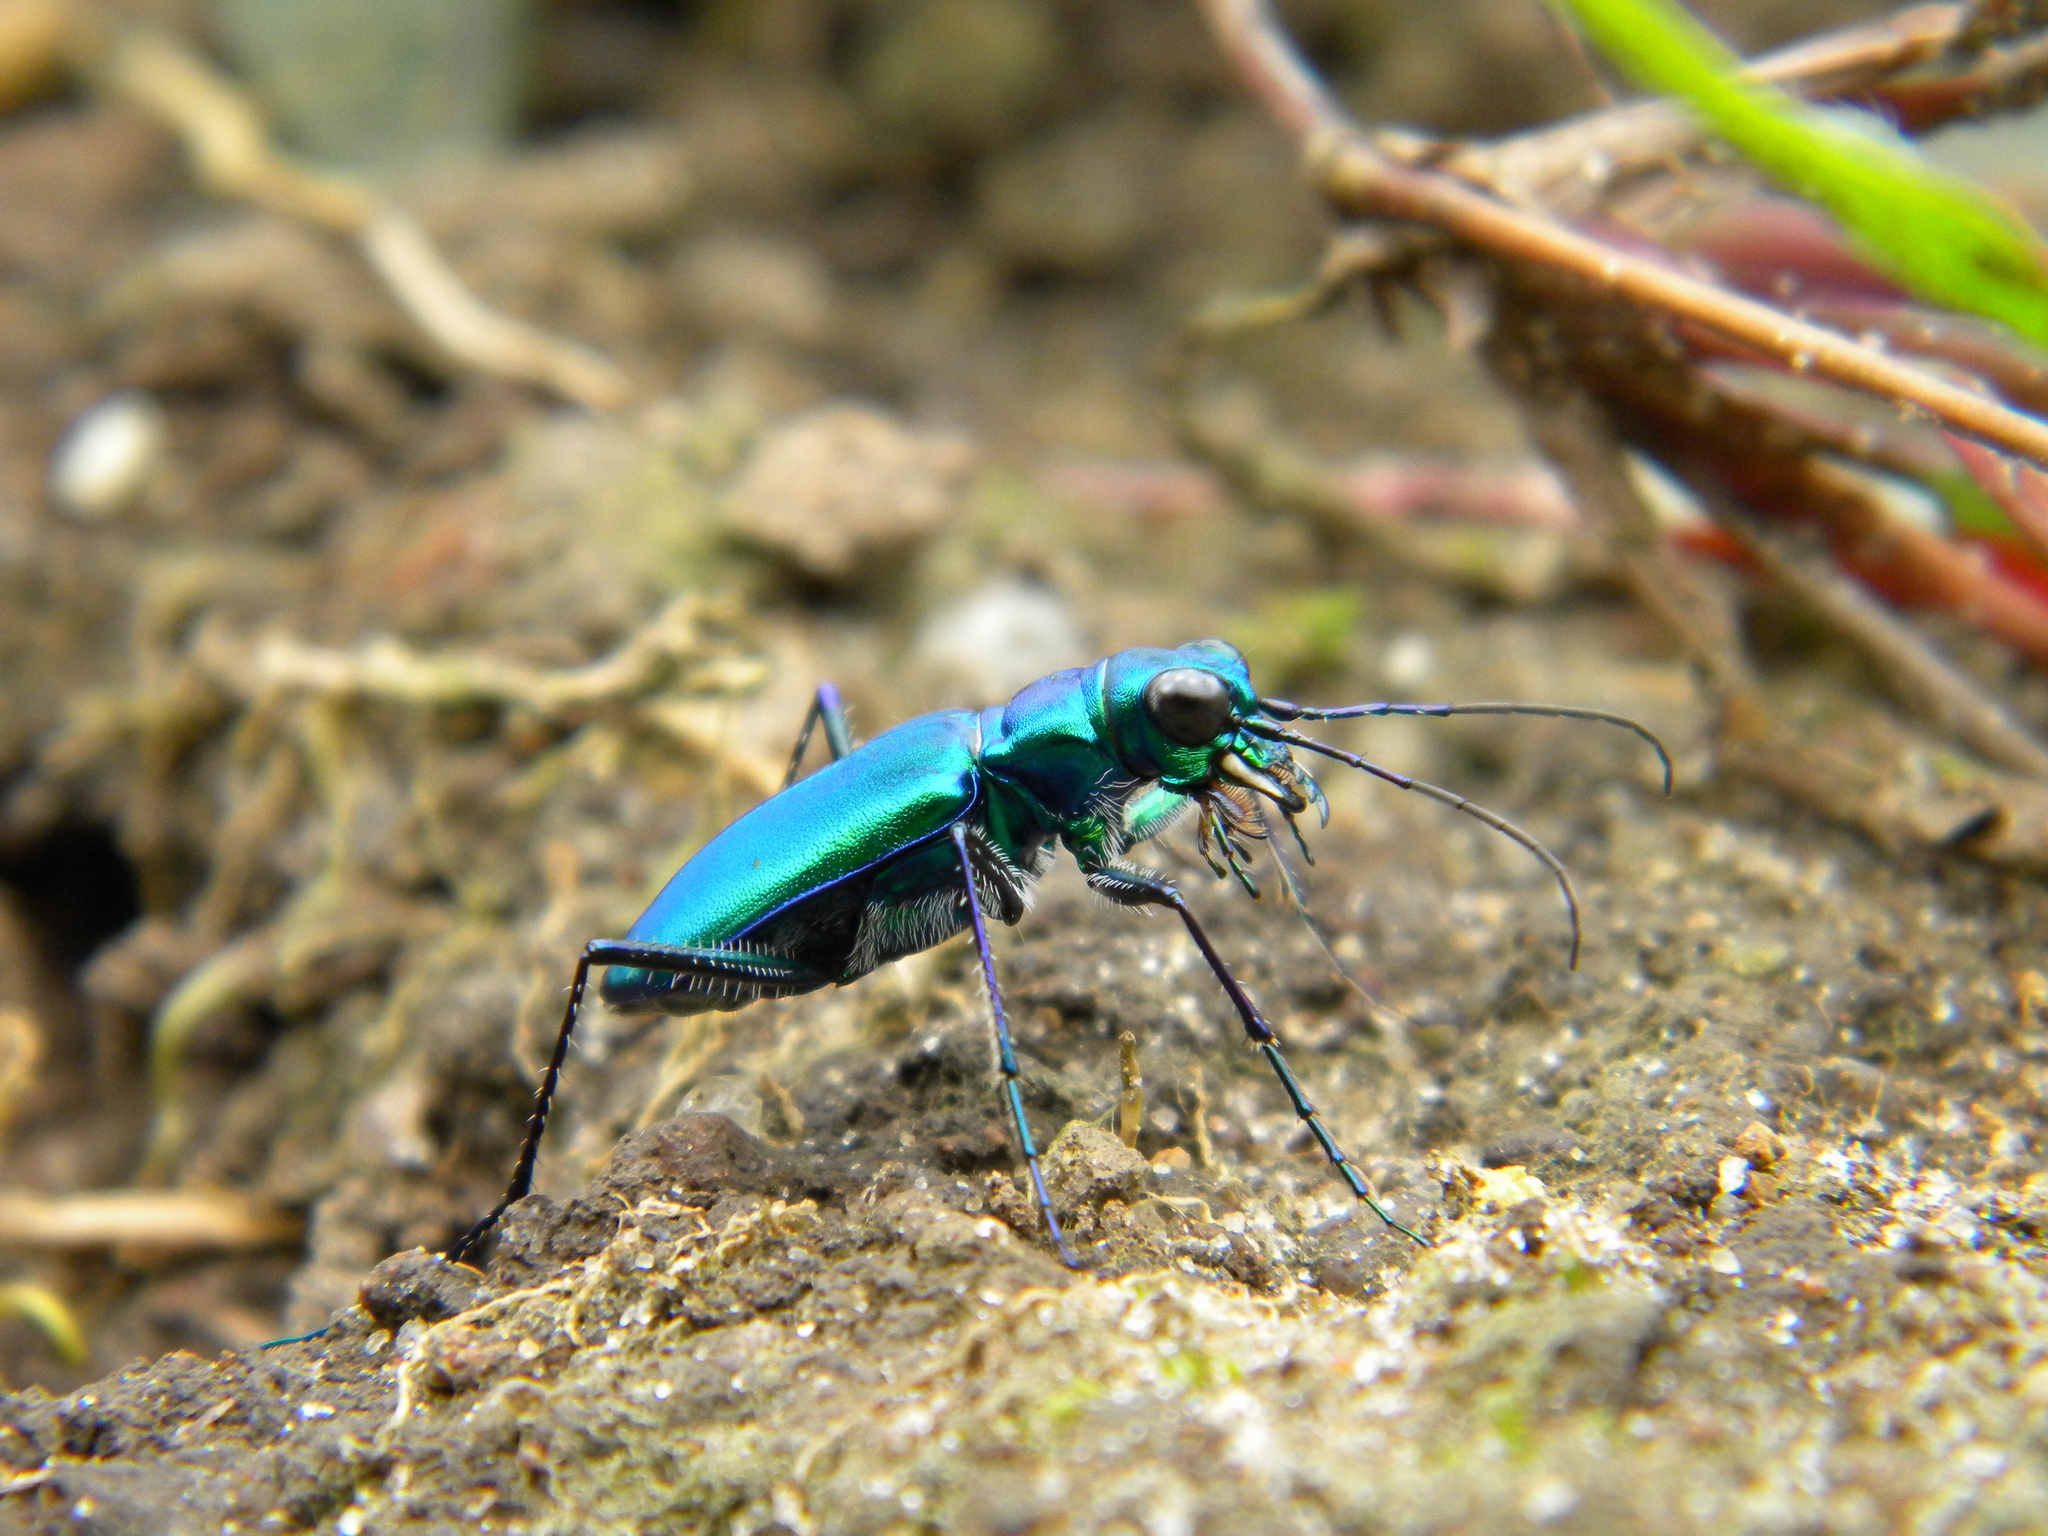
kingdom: Animalia
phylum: Arthropoda
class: Insecta
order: Coleoptera
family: Carabidae
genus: Cicindela
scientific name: Cicindela whithillii
